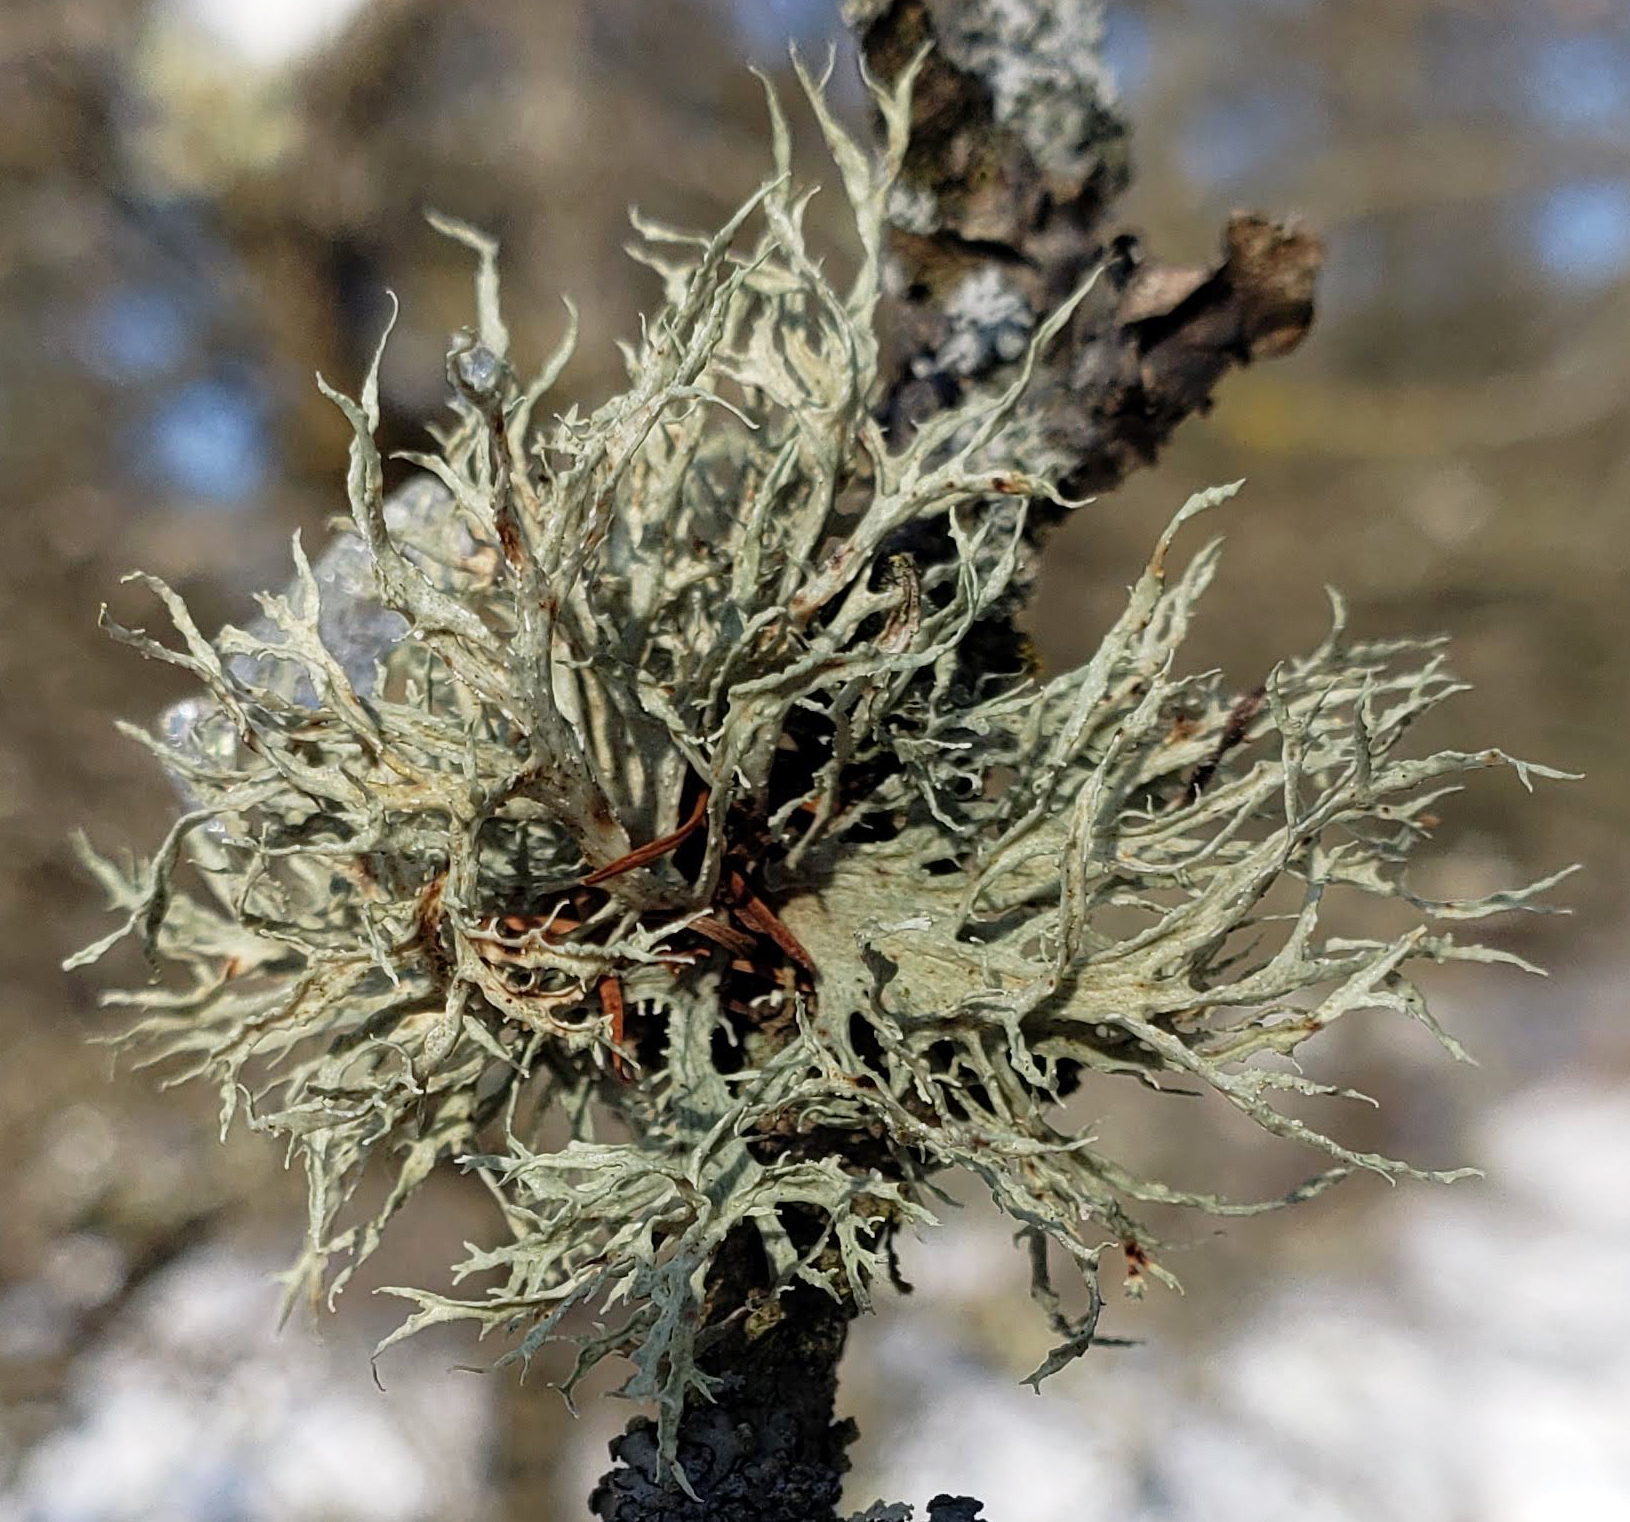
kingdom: Fungi
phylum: Ascomycota
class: Lecanoromycetes
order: Lecanorales
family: Ramalinaceae
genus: Ramalina
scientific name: Ramalina americana
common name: Sinewed bush lichen
